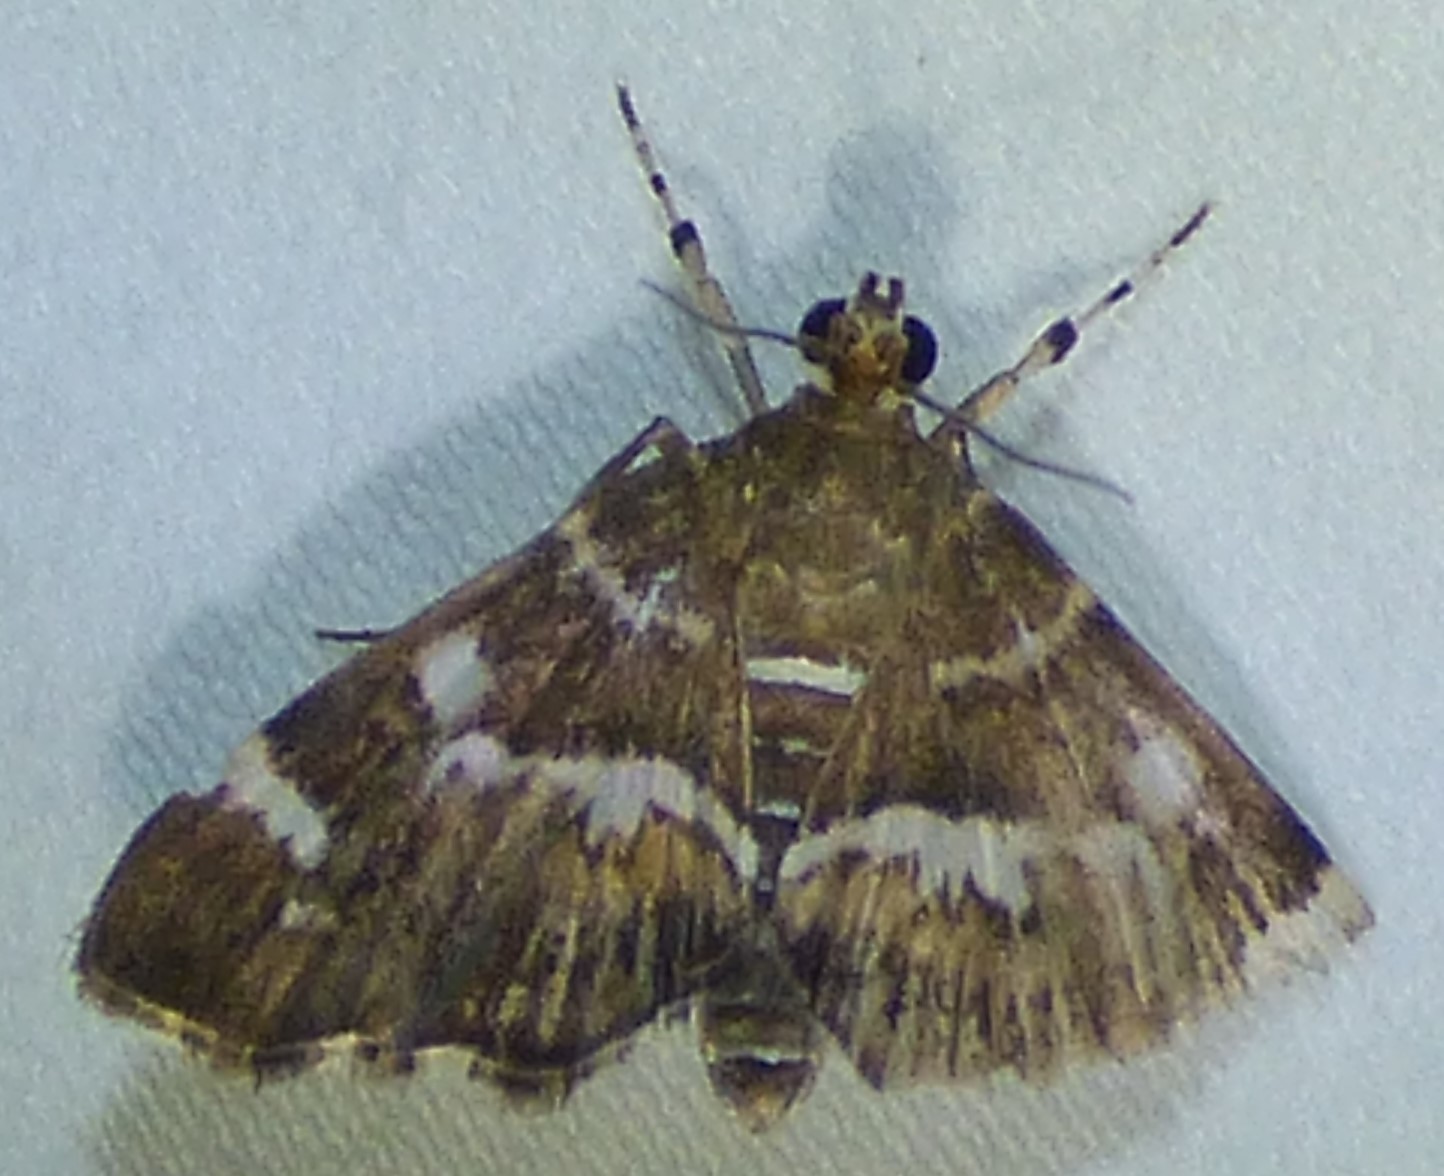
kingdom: Animalia
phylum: Arthropoda
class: Insecta
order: Lepidoptera
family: Crambidae
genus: Hymenia
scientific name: Hymenia perspectalis
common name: Spotted beet webworm
